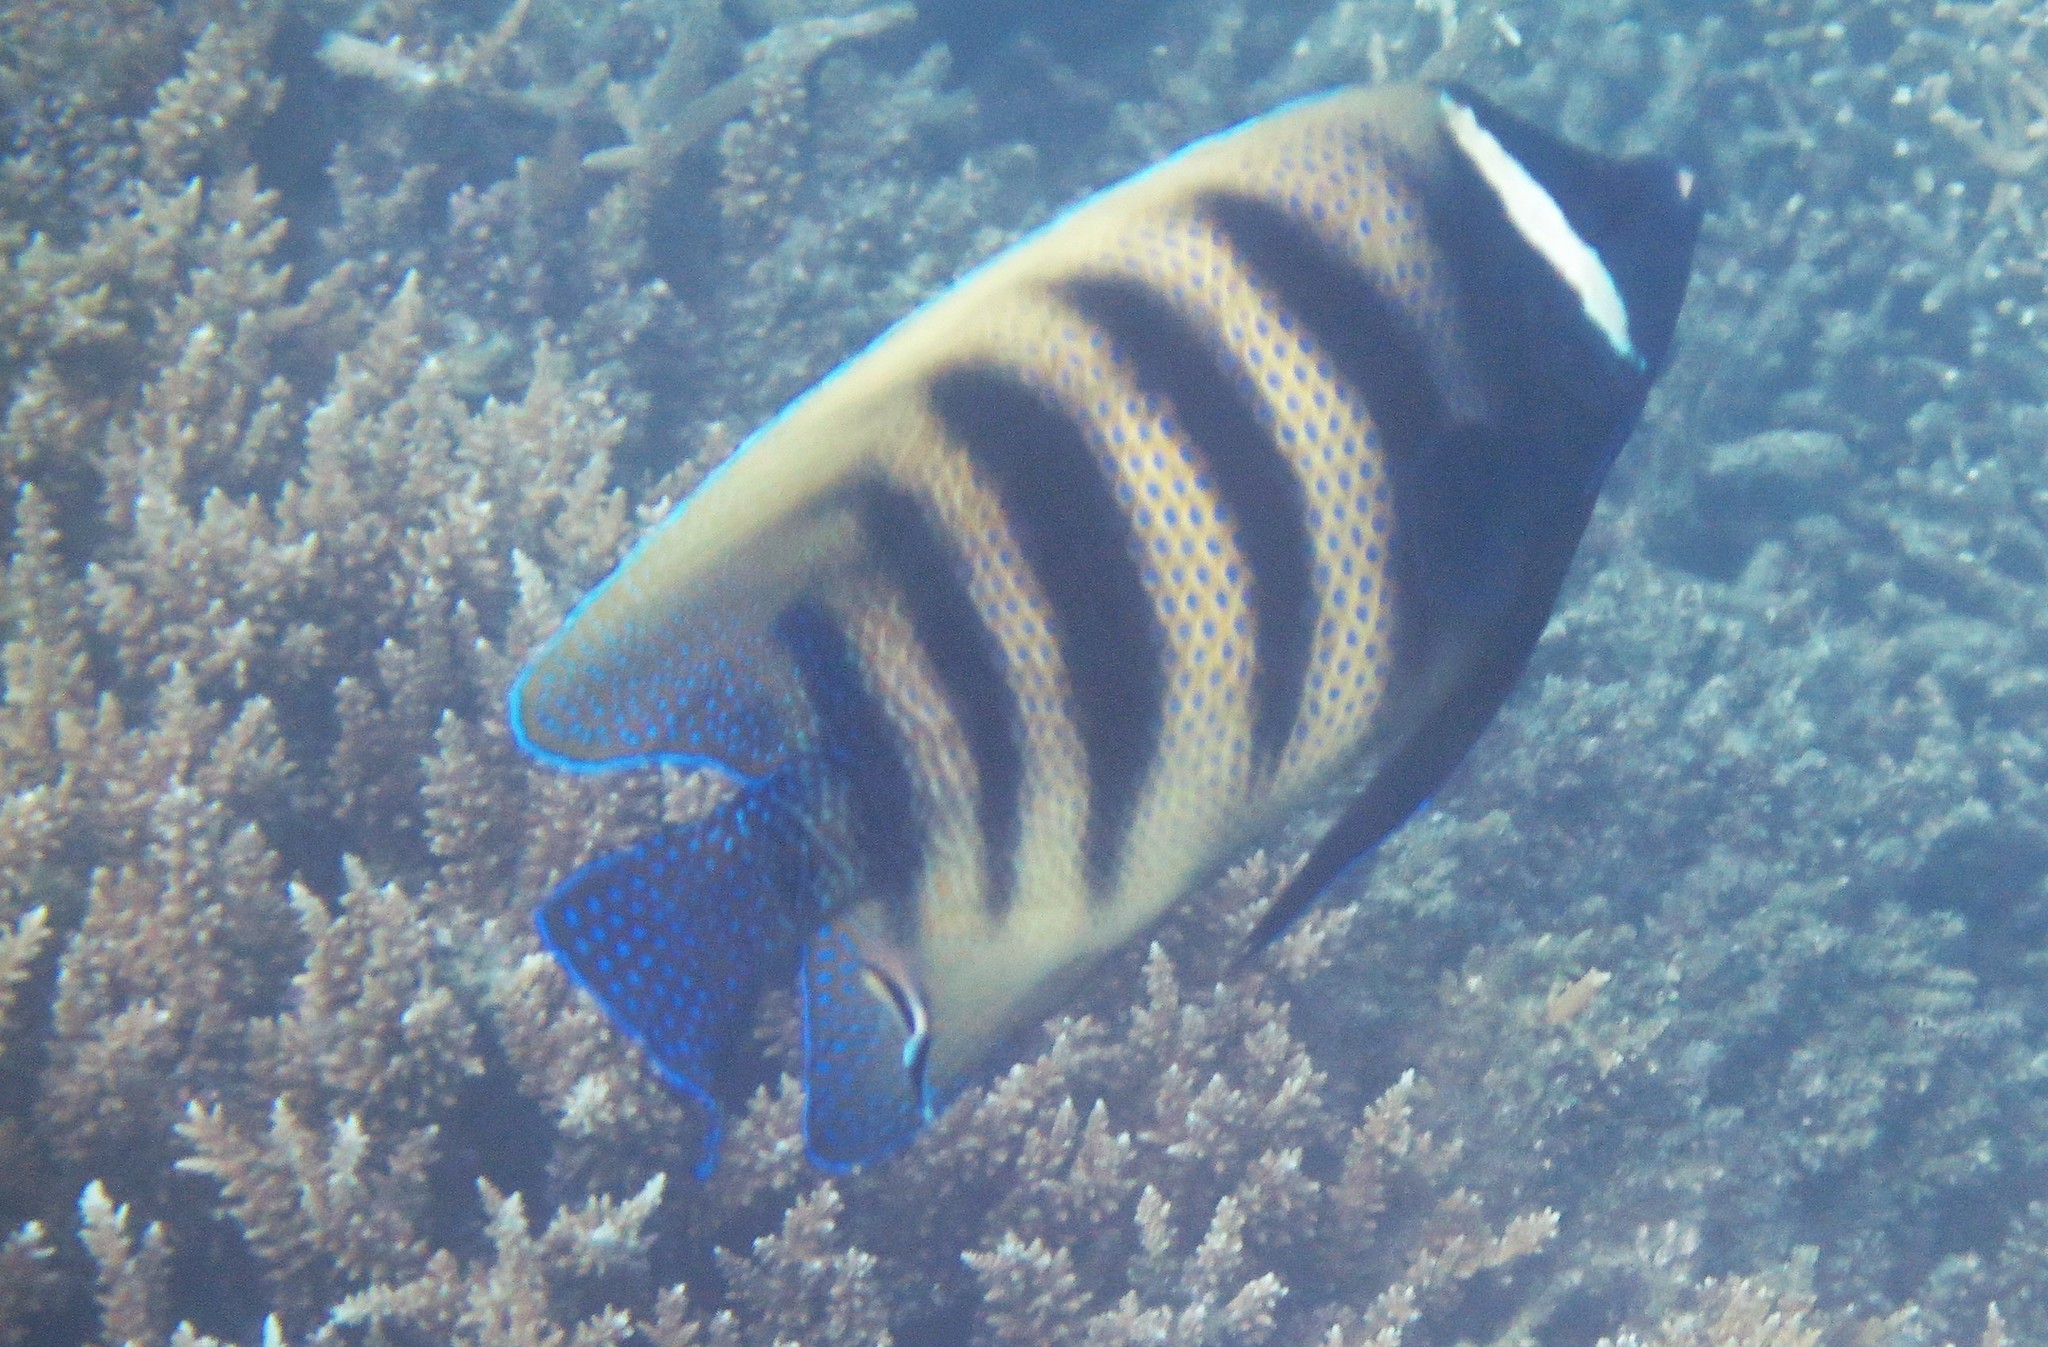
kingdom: Animalia
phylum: Chordata
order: Perciformes
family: Pomacanthidae
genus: Pomacanthus
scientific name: Pomacanthus sexstriatus
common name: Six-banded angelfish
